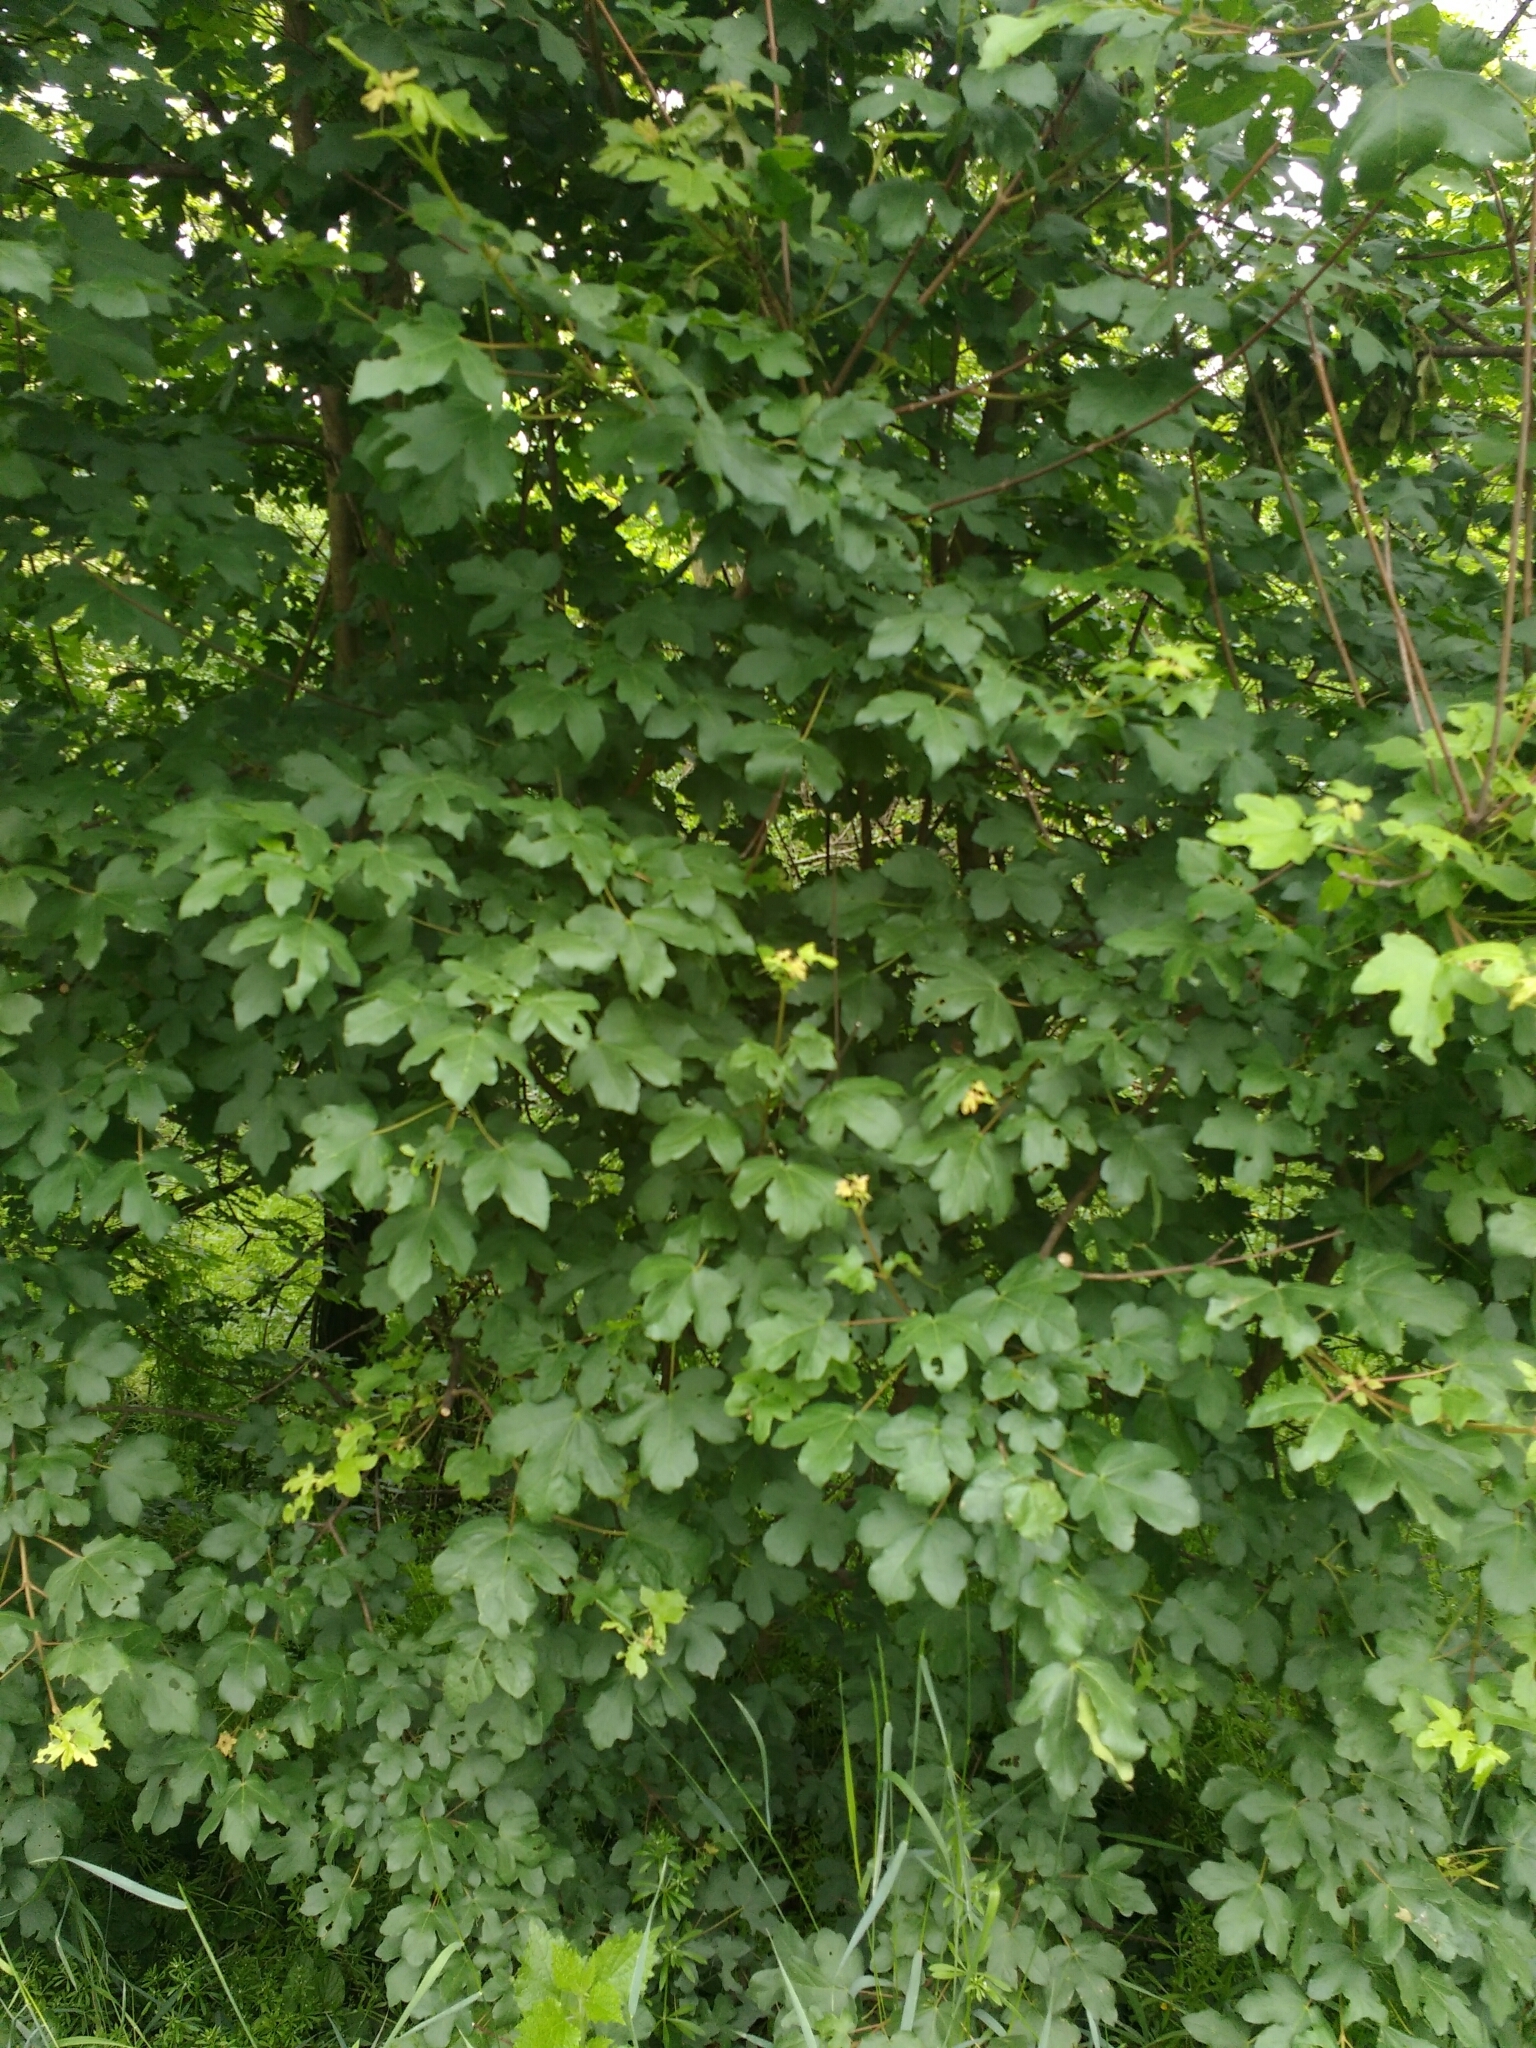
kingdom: Plantae
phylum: Tracheophyta
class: Magnoliopsida
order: Sapindales
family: Sapindaceae
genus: Acer
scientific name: Acer campestre
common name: Field maple
